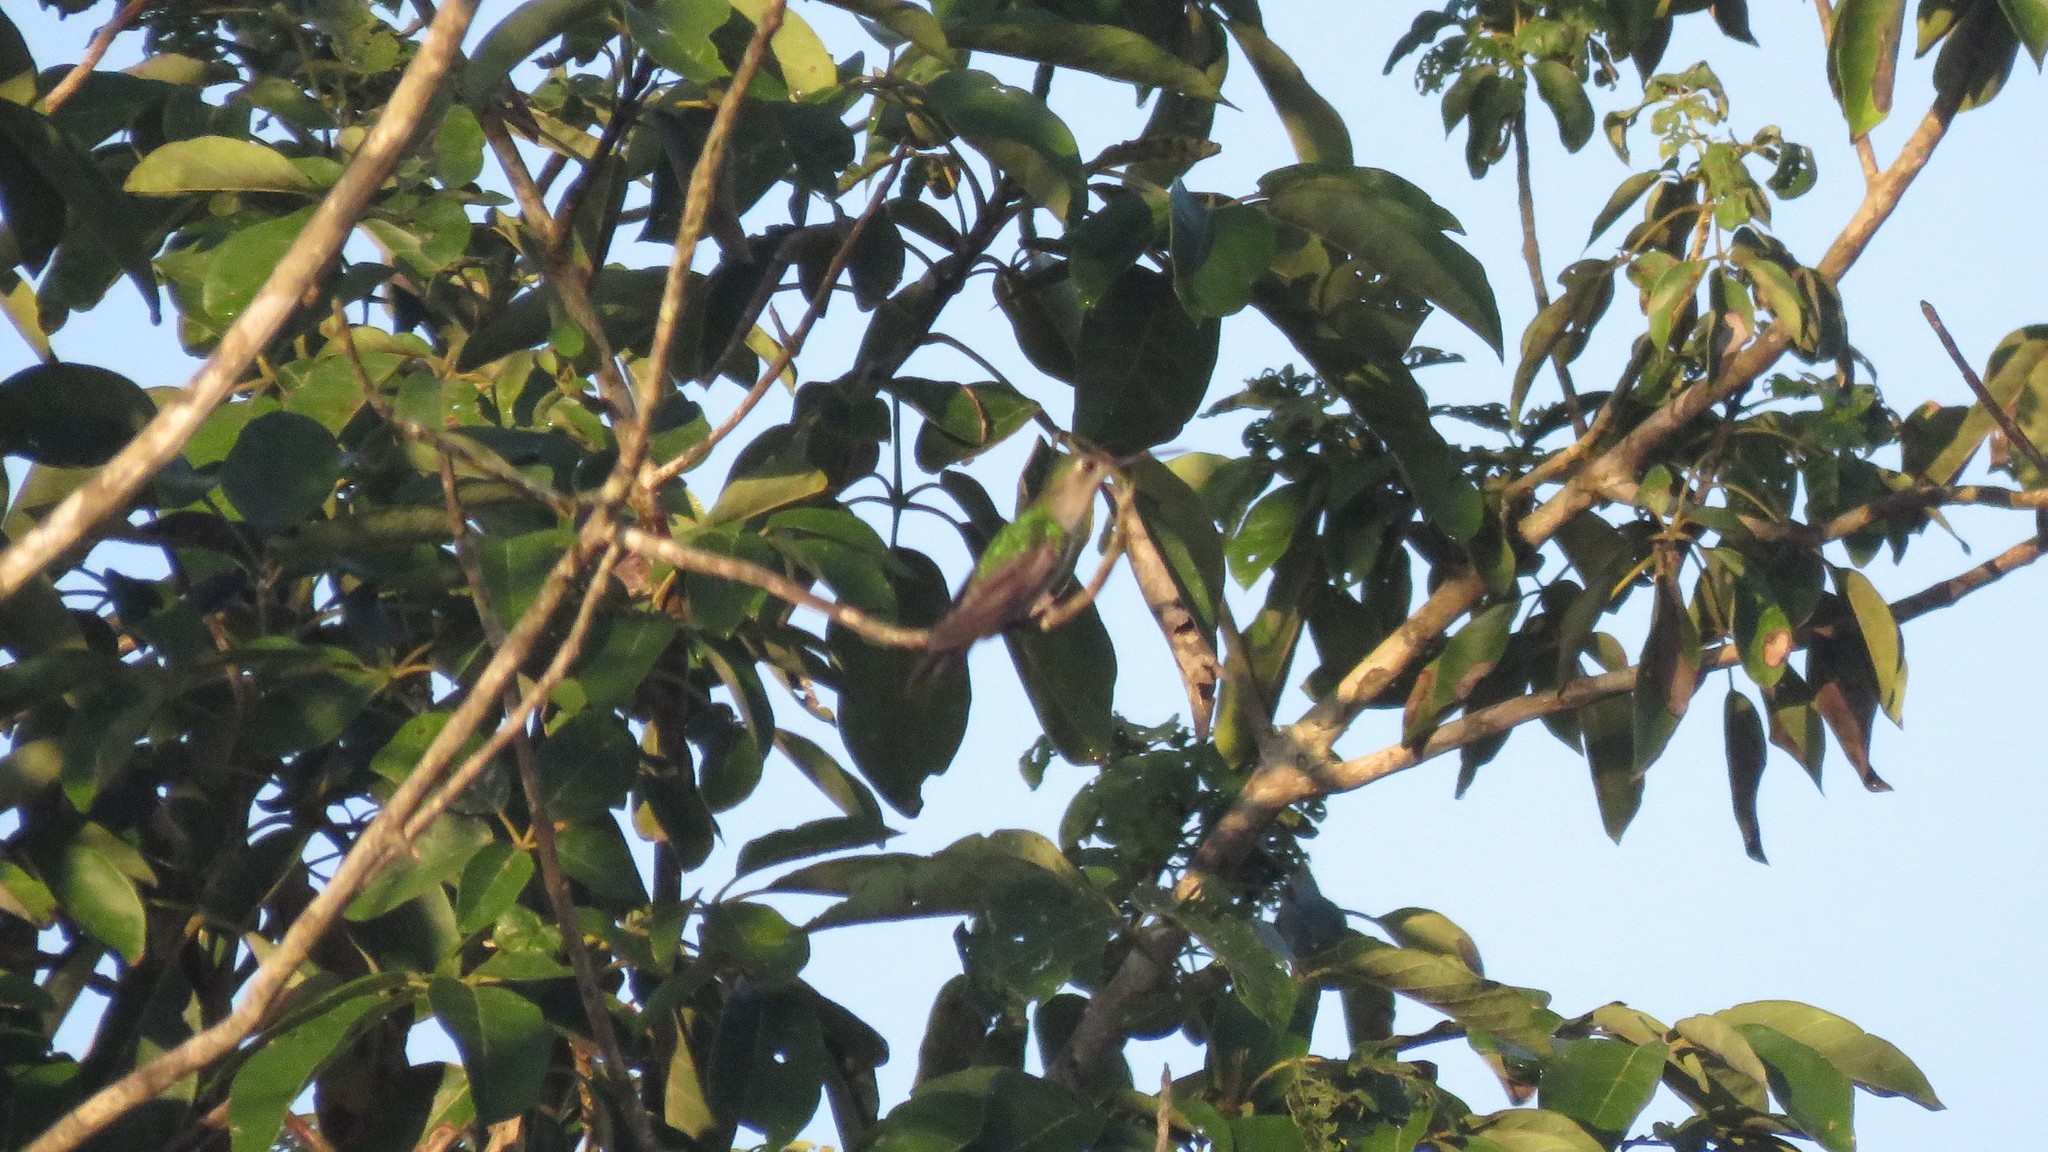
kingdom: Animalia
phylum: Chordata
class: Aves
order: Apodiformes
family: Trochilidae
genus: Pampa
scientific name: Pampa curvipennis
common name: Curve-winged sabrewing
